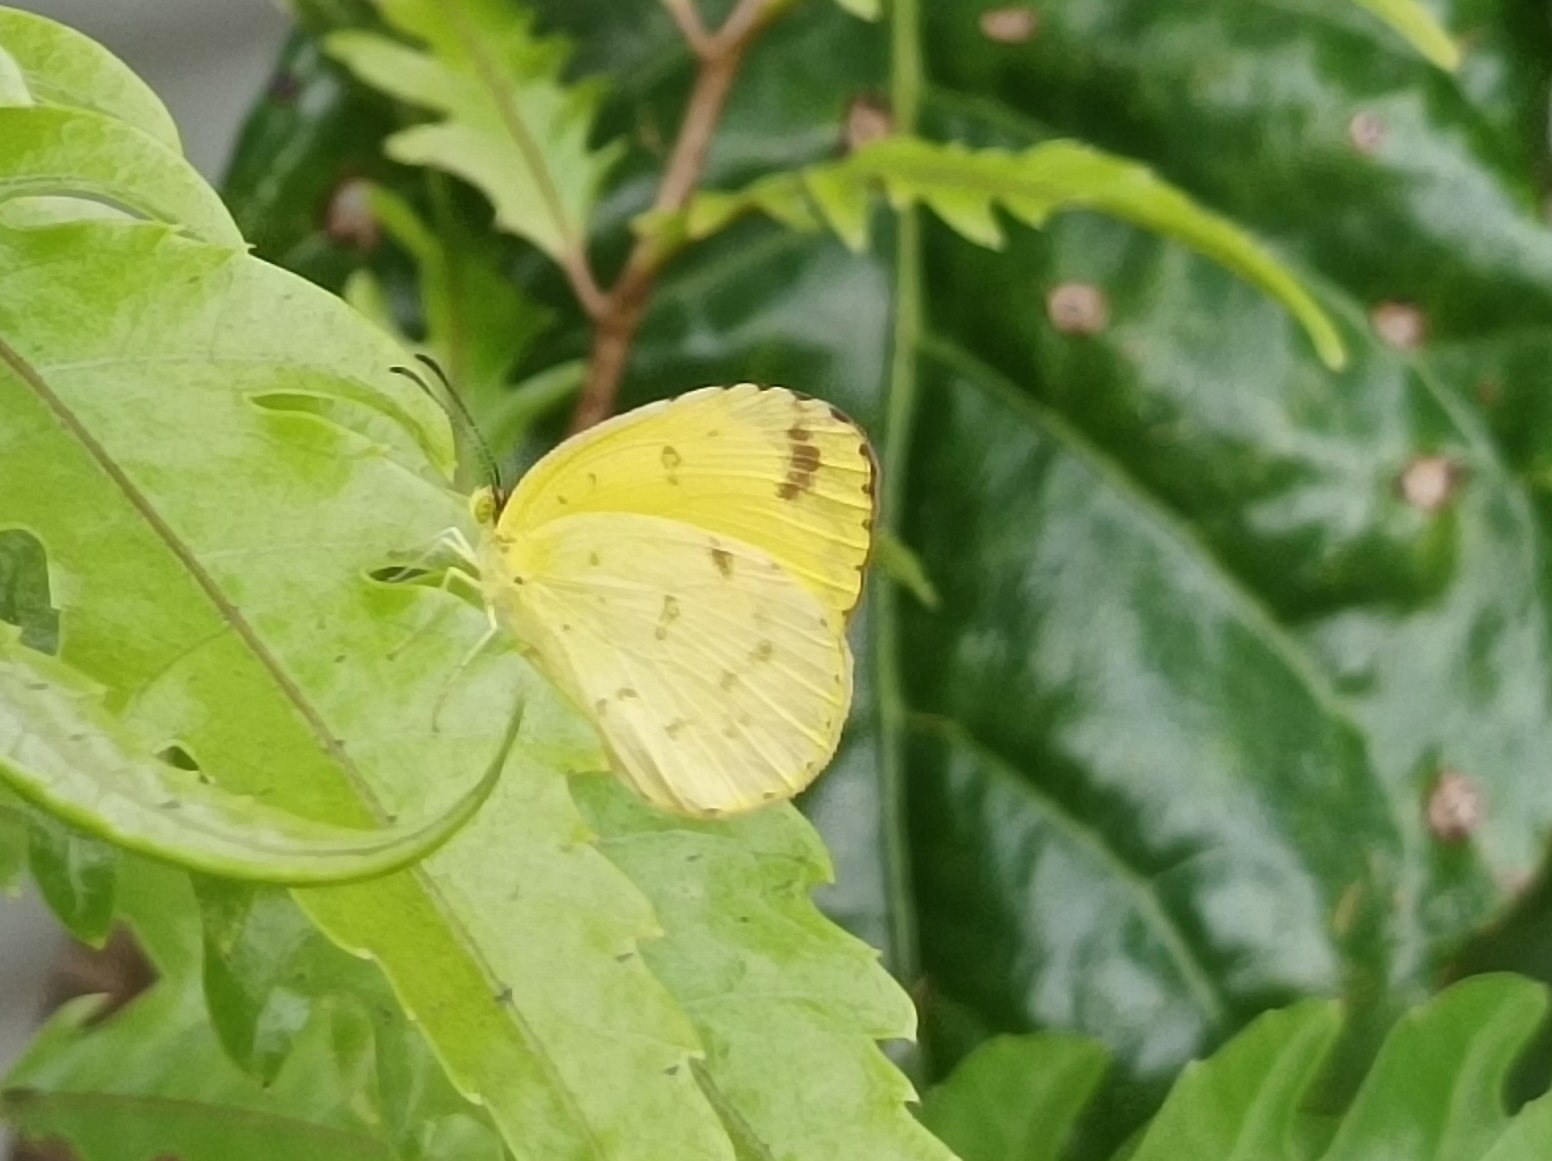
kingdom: Animalia
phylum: Arthropoda
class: Insecta
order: Lepidoptera
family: Pieridae
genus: Eurema
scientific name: Eurema hecabe
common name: Pale grass yellow
